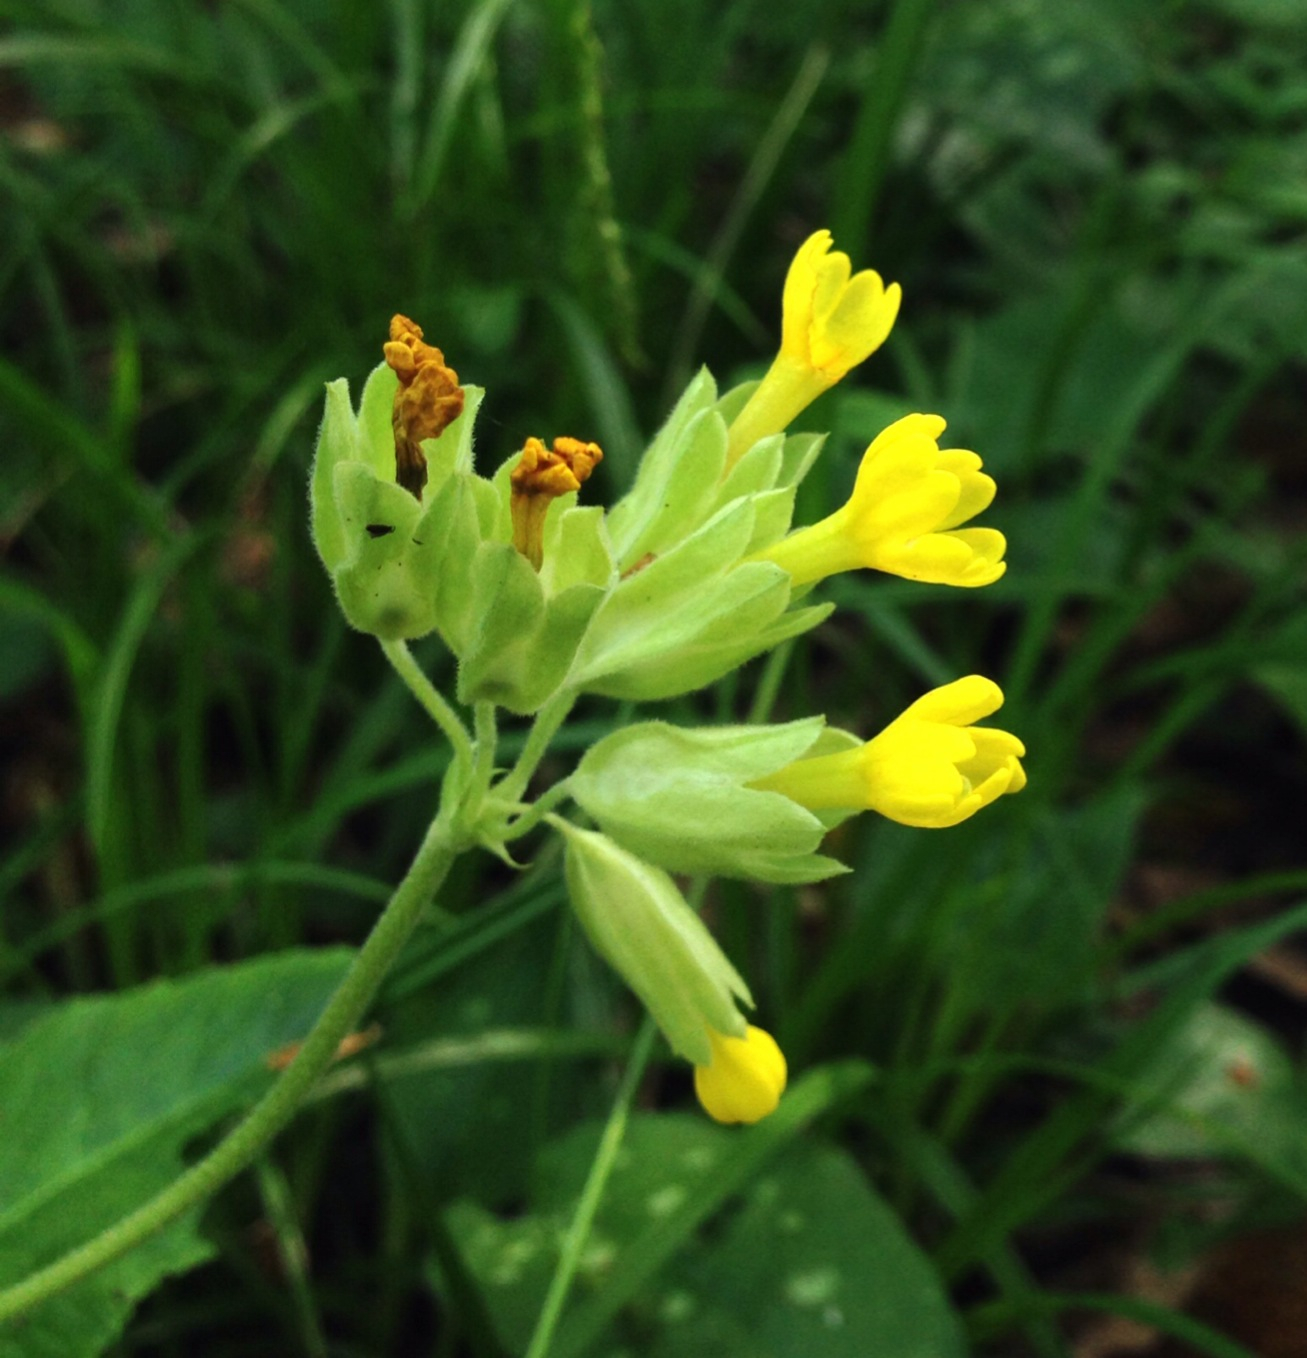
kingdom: Plantae
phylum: Tracheophyta
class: Magnoliopsida
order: Ericales
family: Primulaceae
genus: Primula
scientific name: Primula veris
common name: Cowslip
